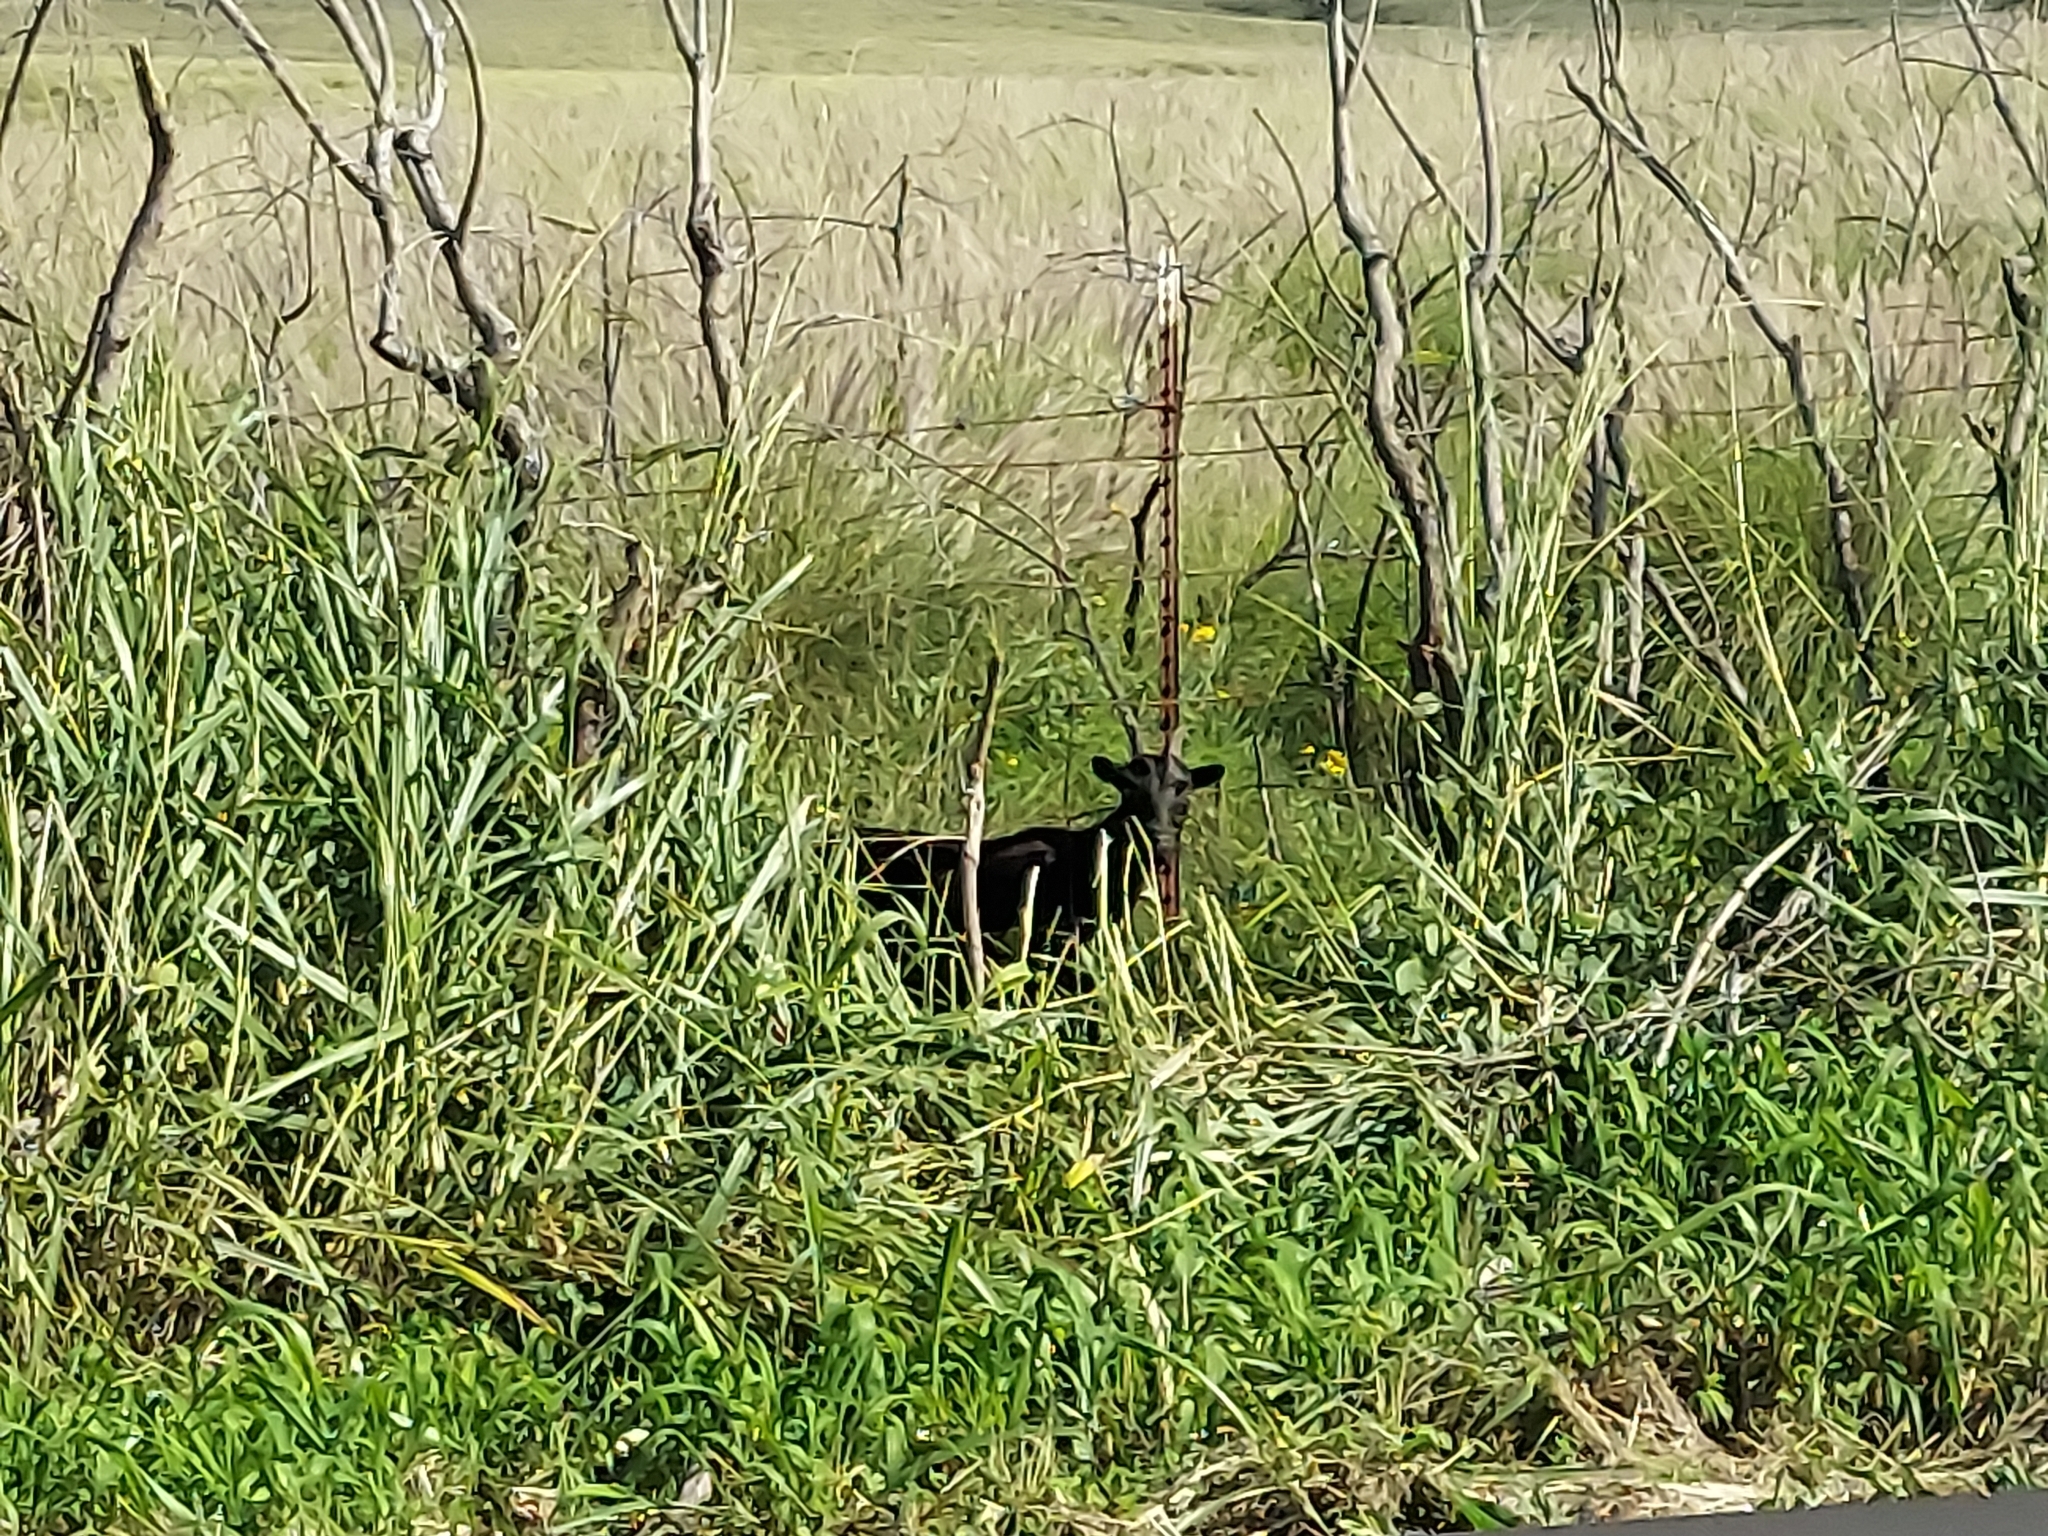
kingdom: Animalia
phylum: Chordata
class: Mammalia
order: Artiodactyla
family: Bovidae
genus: Capra
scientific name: Capra hircus
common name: Domestic goat
